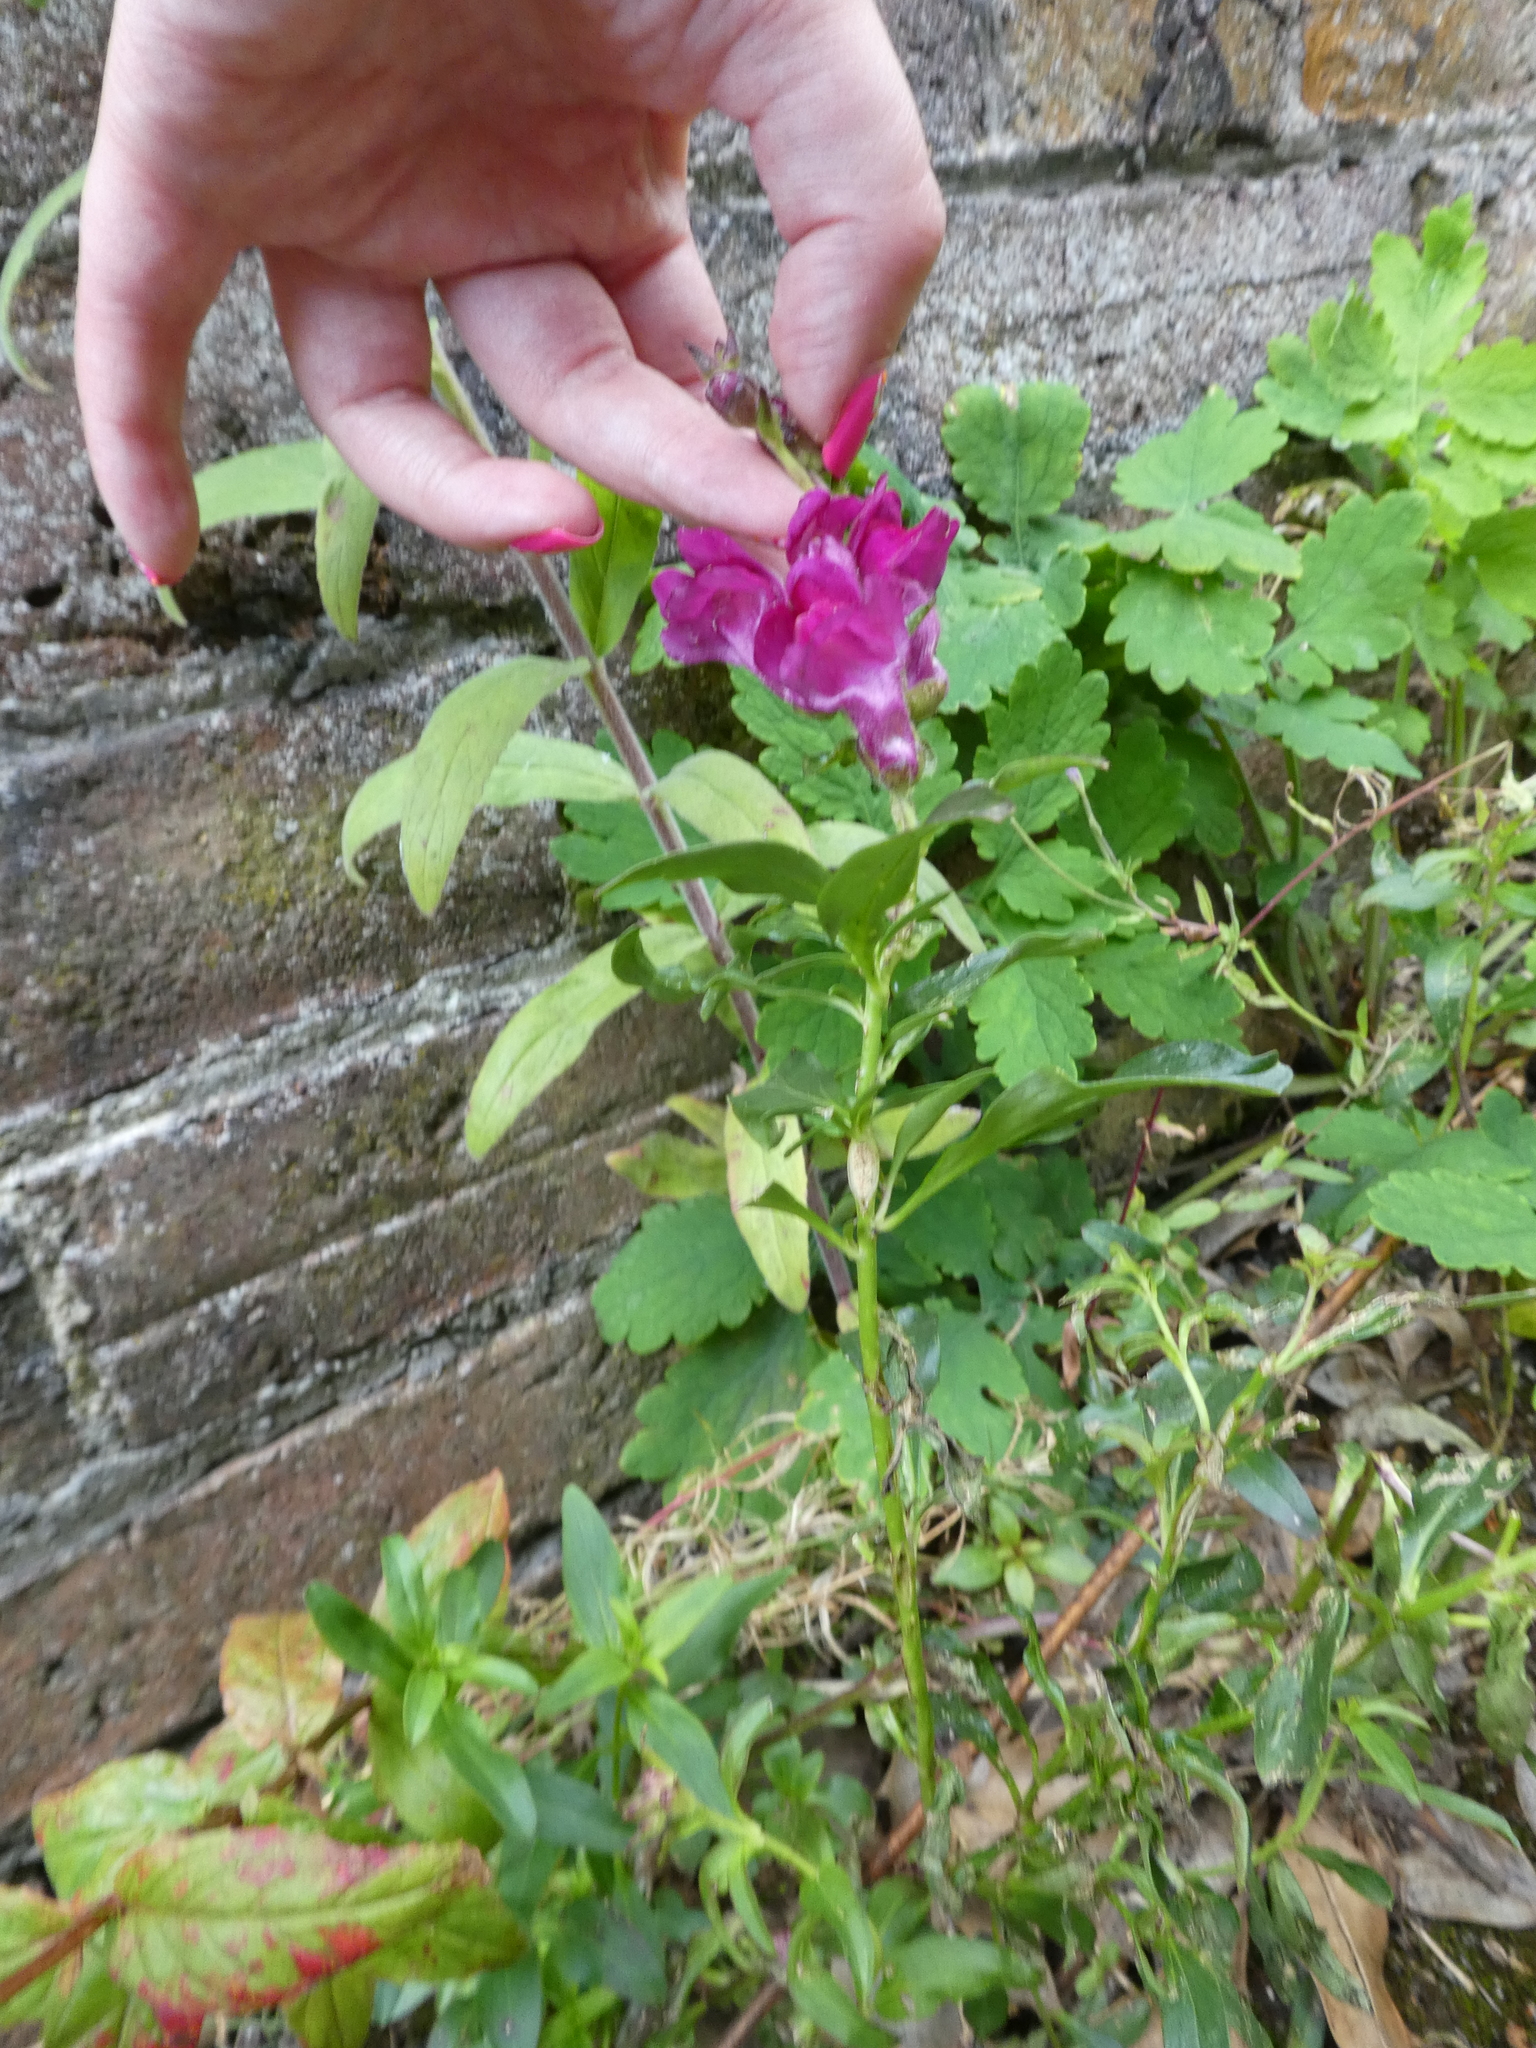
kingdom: Plantae
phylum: Tracheophyta
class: Magnoliopsida
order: Lamiales
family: Plantaginaceae
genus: Antirrhinum
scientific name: Antirrhinum majus
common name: Snapdragon
